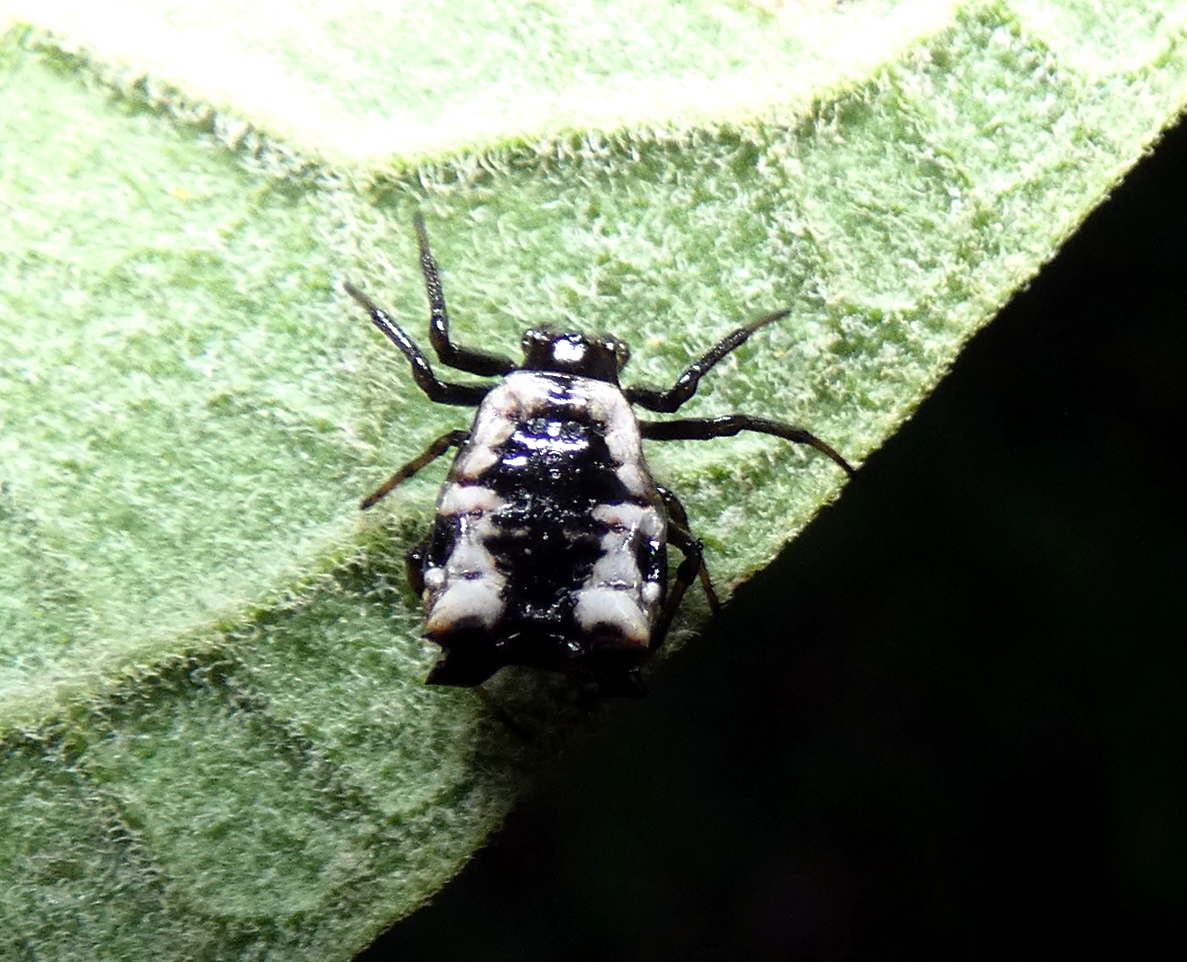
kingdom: Animalia
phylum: Arthropoda
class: Arachnida
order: Araneae
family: Araneidae
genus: Micrathena
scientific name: Micrathena patruelis
